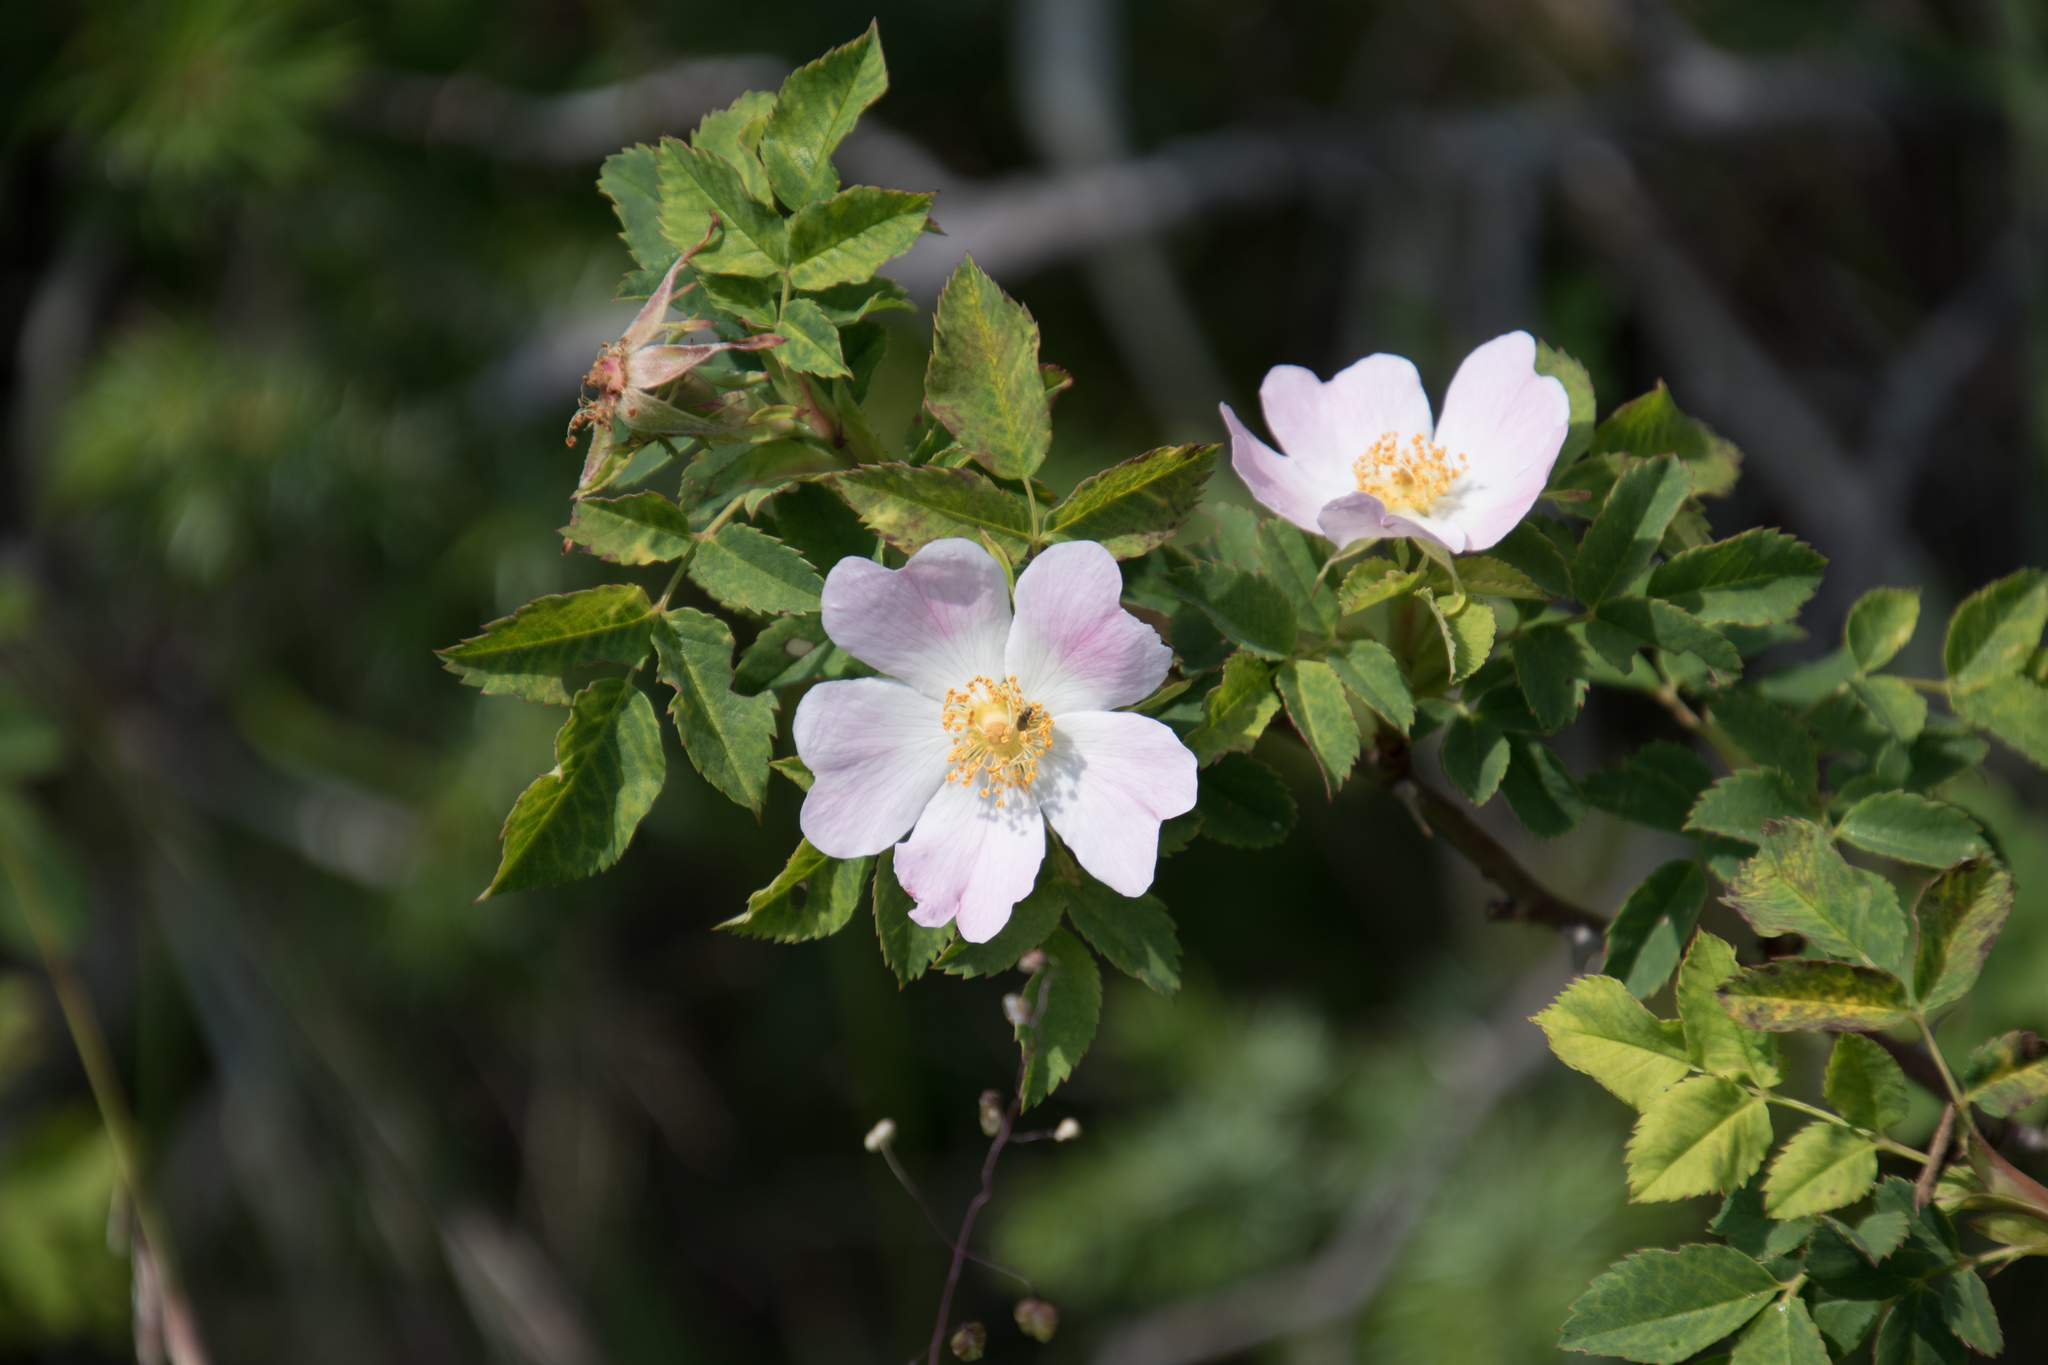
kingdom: Plantae
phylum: Tracheophyta
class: Magnoliopsida
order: Rosales
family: Rosaceae
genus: Rosa
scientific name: Rosa canina
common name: Dog rose
